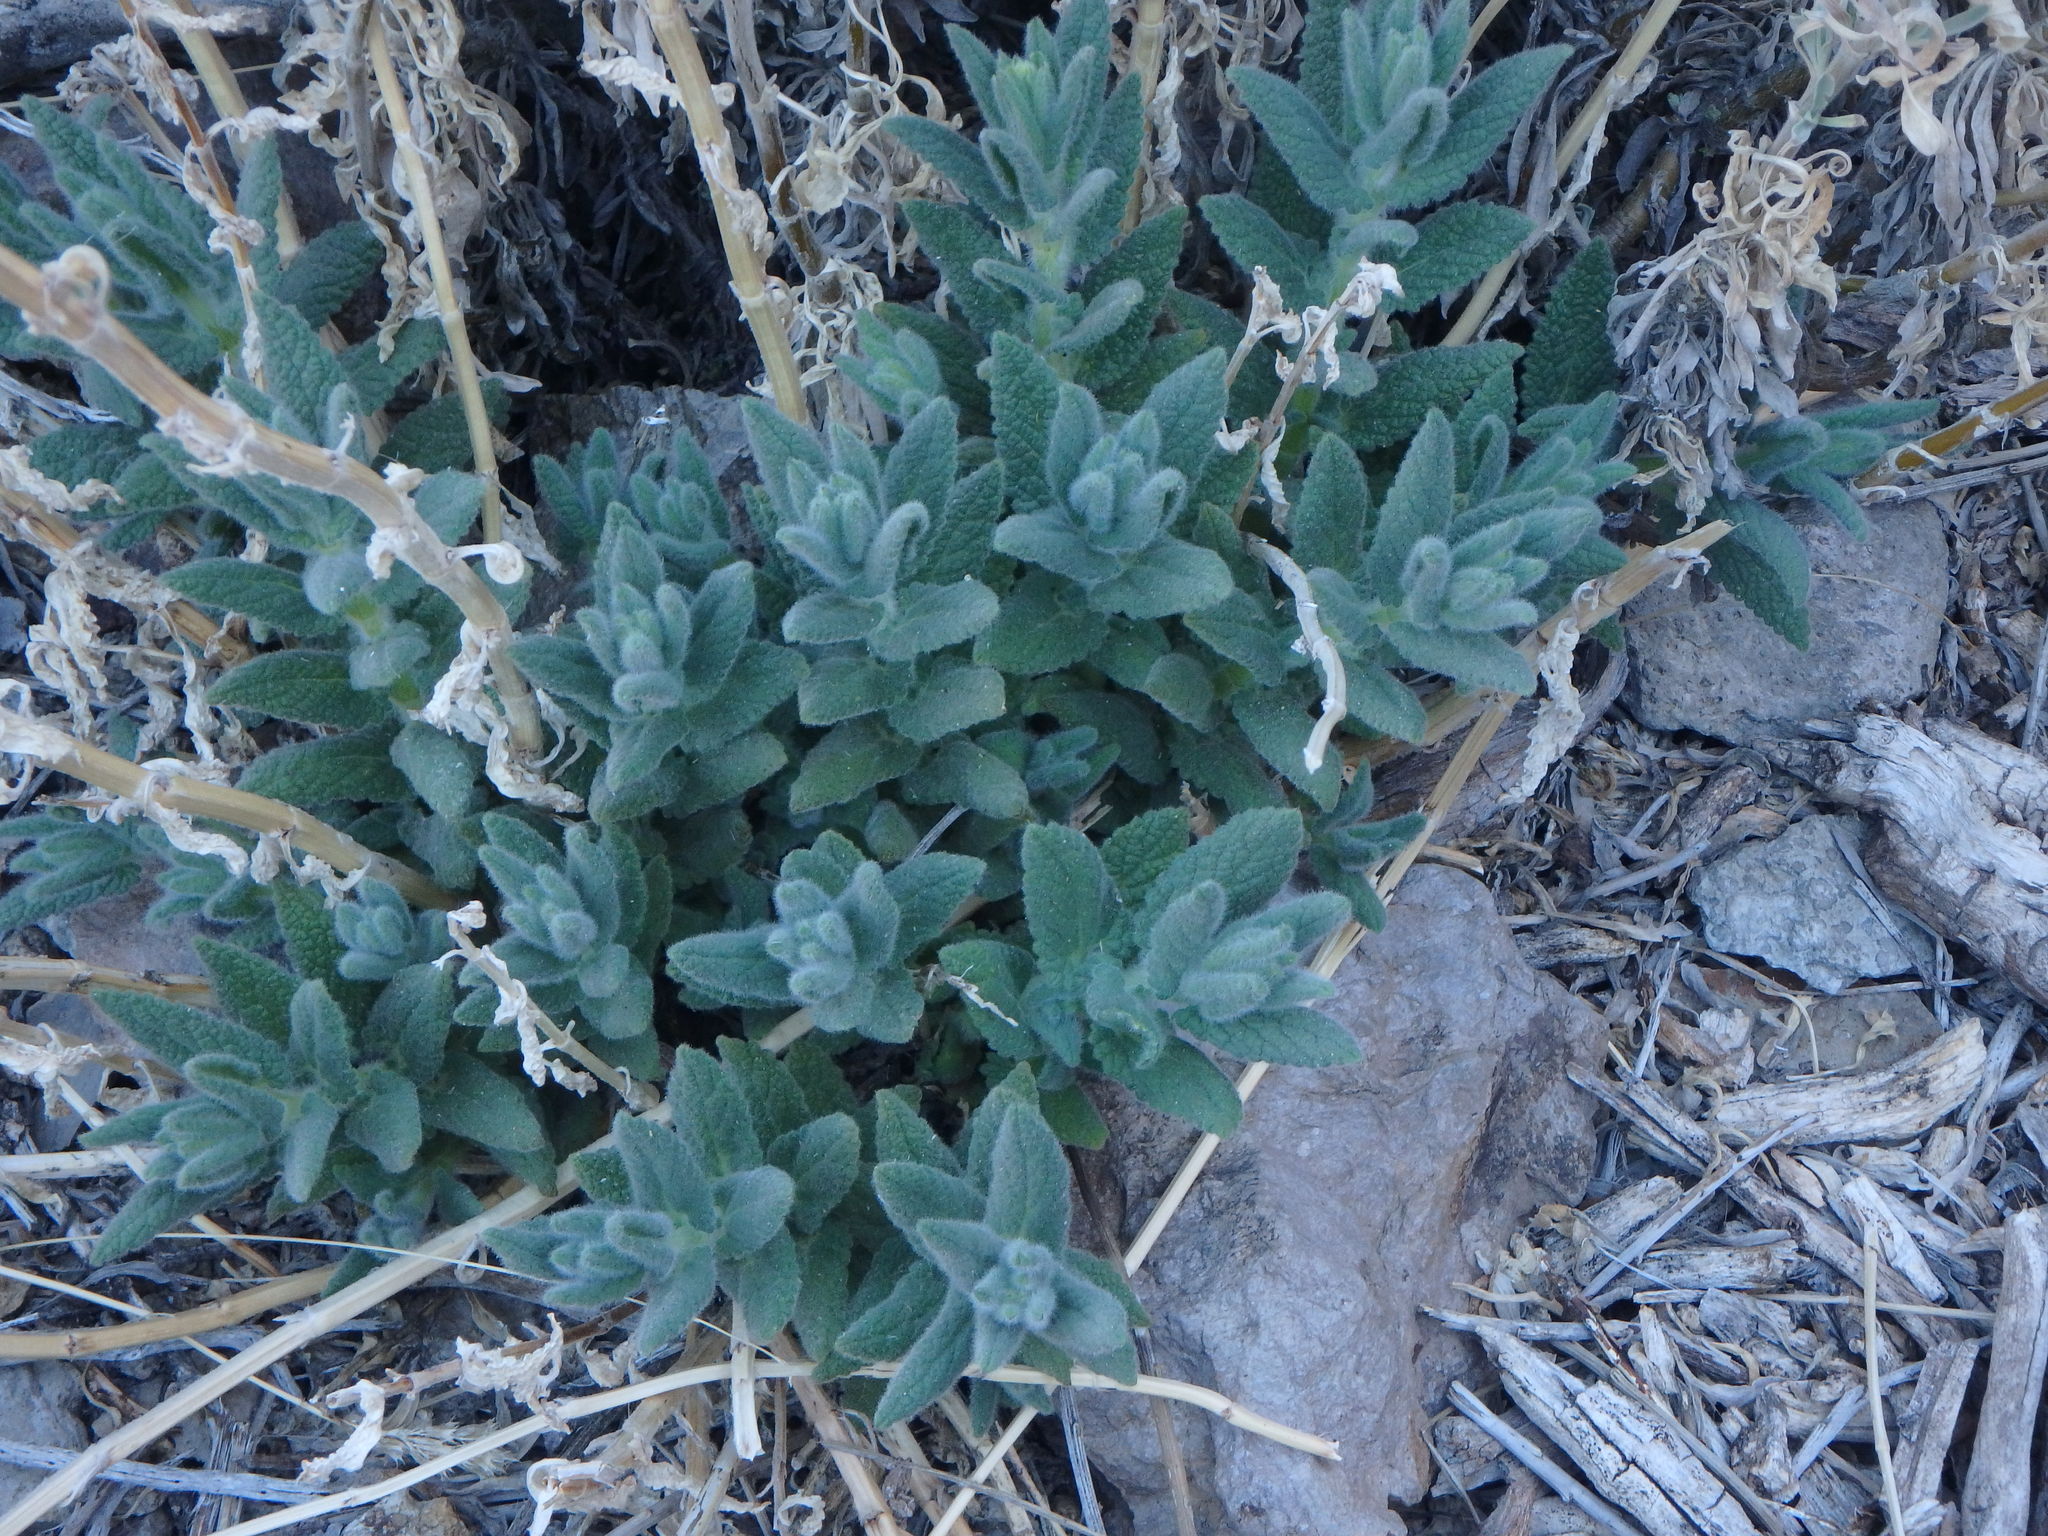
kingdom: Plantae
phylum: Tracheophyta
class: Magnoliopsida
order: Lamiales
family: Lamiaceae
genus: Nepeta
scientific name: Nepeta teydea
